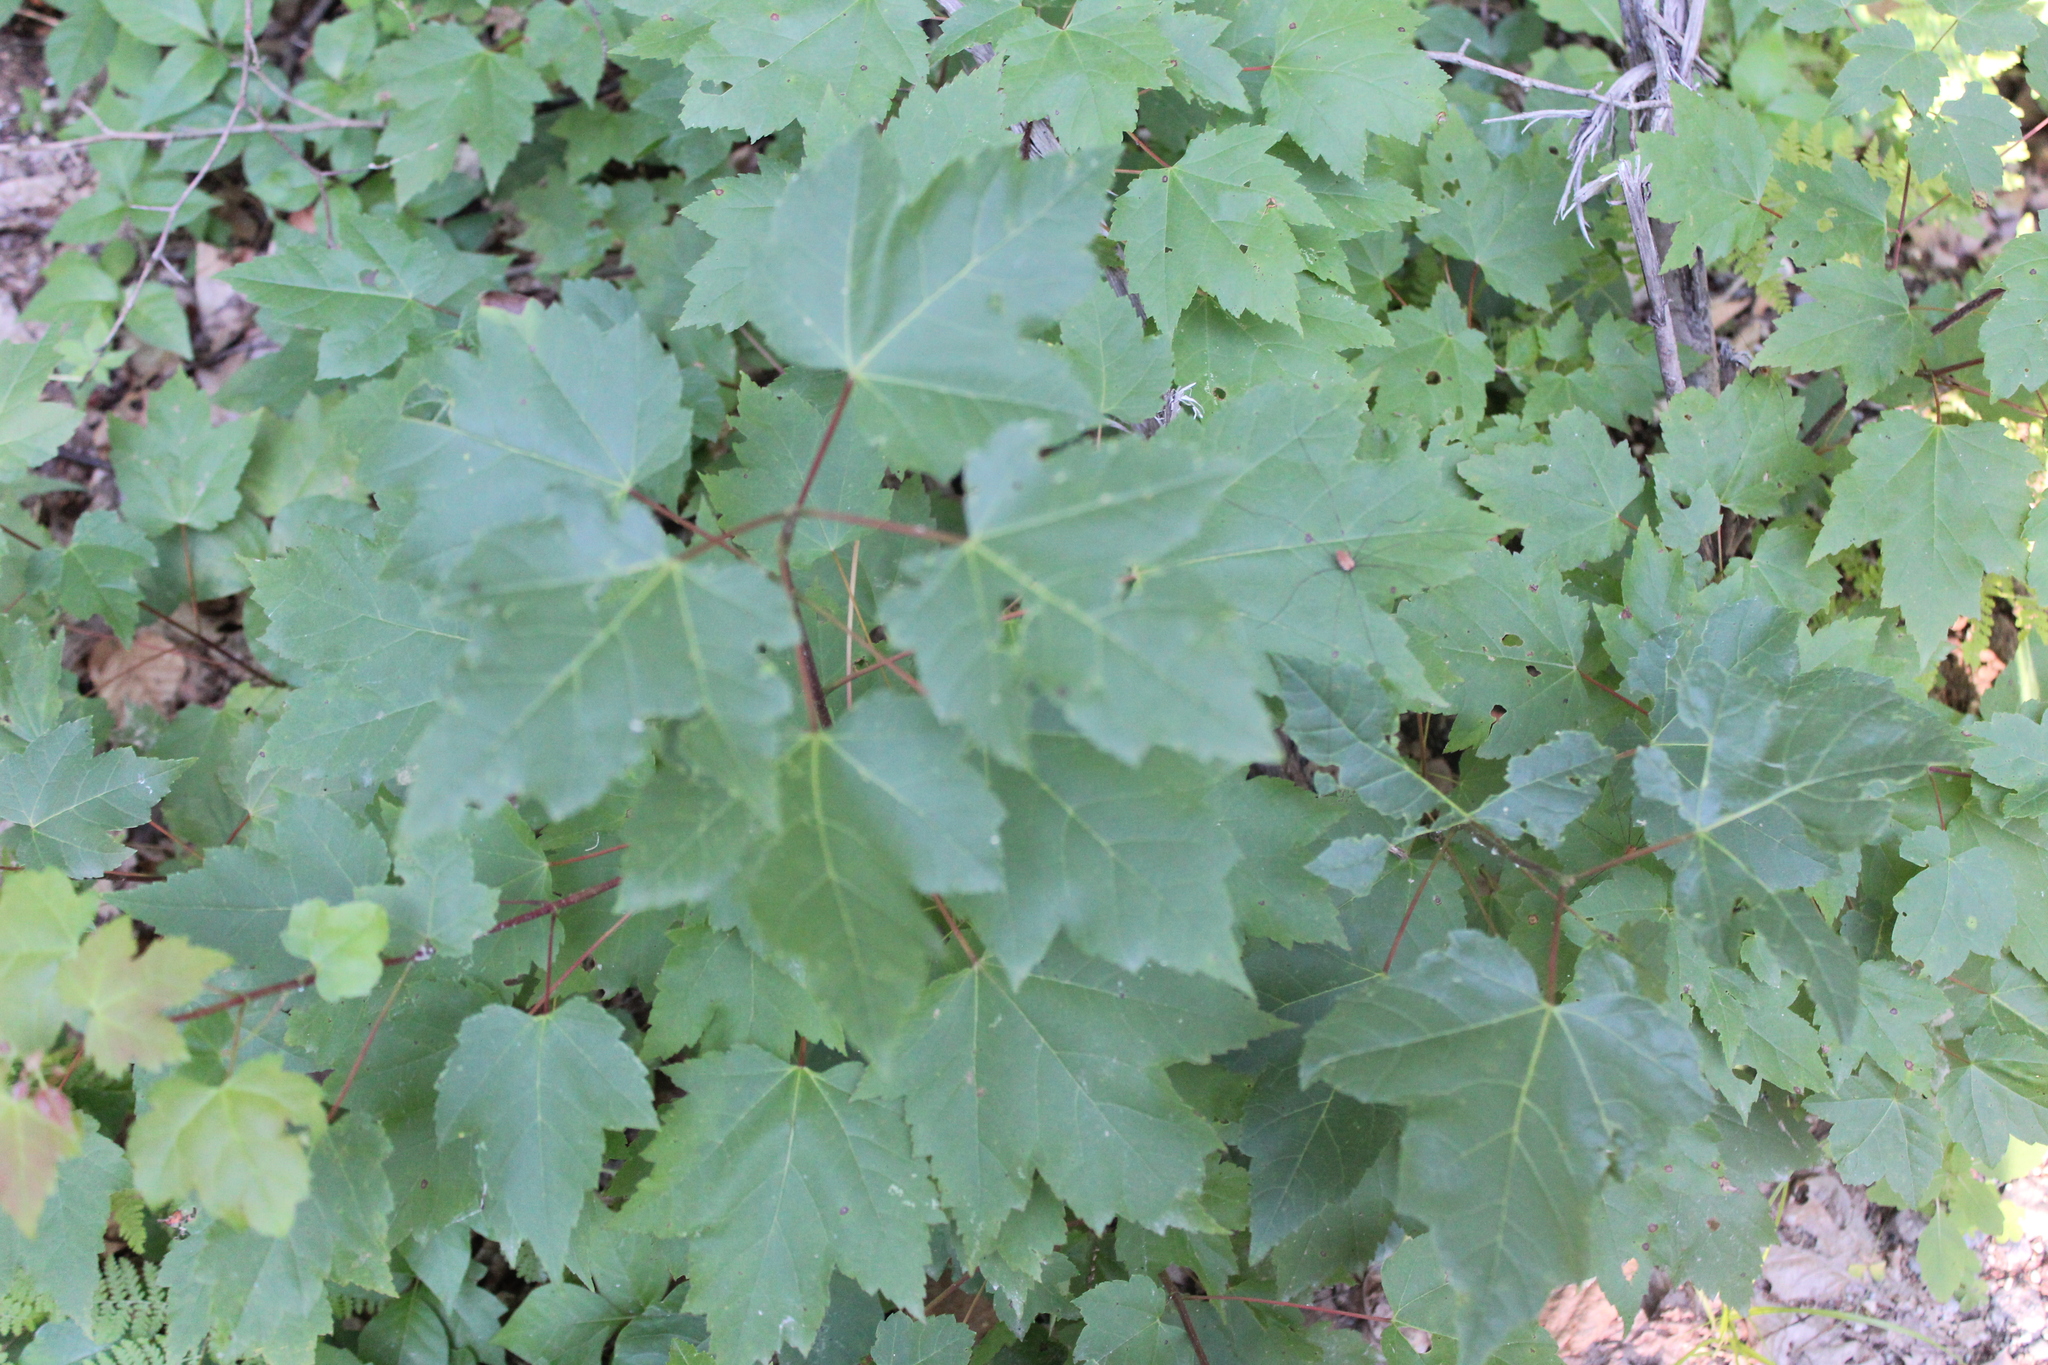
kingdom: Plantae
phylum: Tracheophyta
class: Magnoliopsida
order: Sapindales
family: Sapindaceae
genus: Acer
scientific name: Acer rubrum
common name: Red maple
